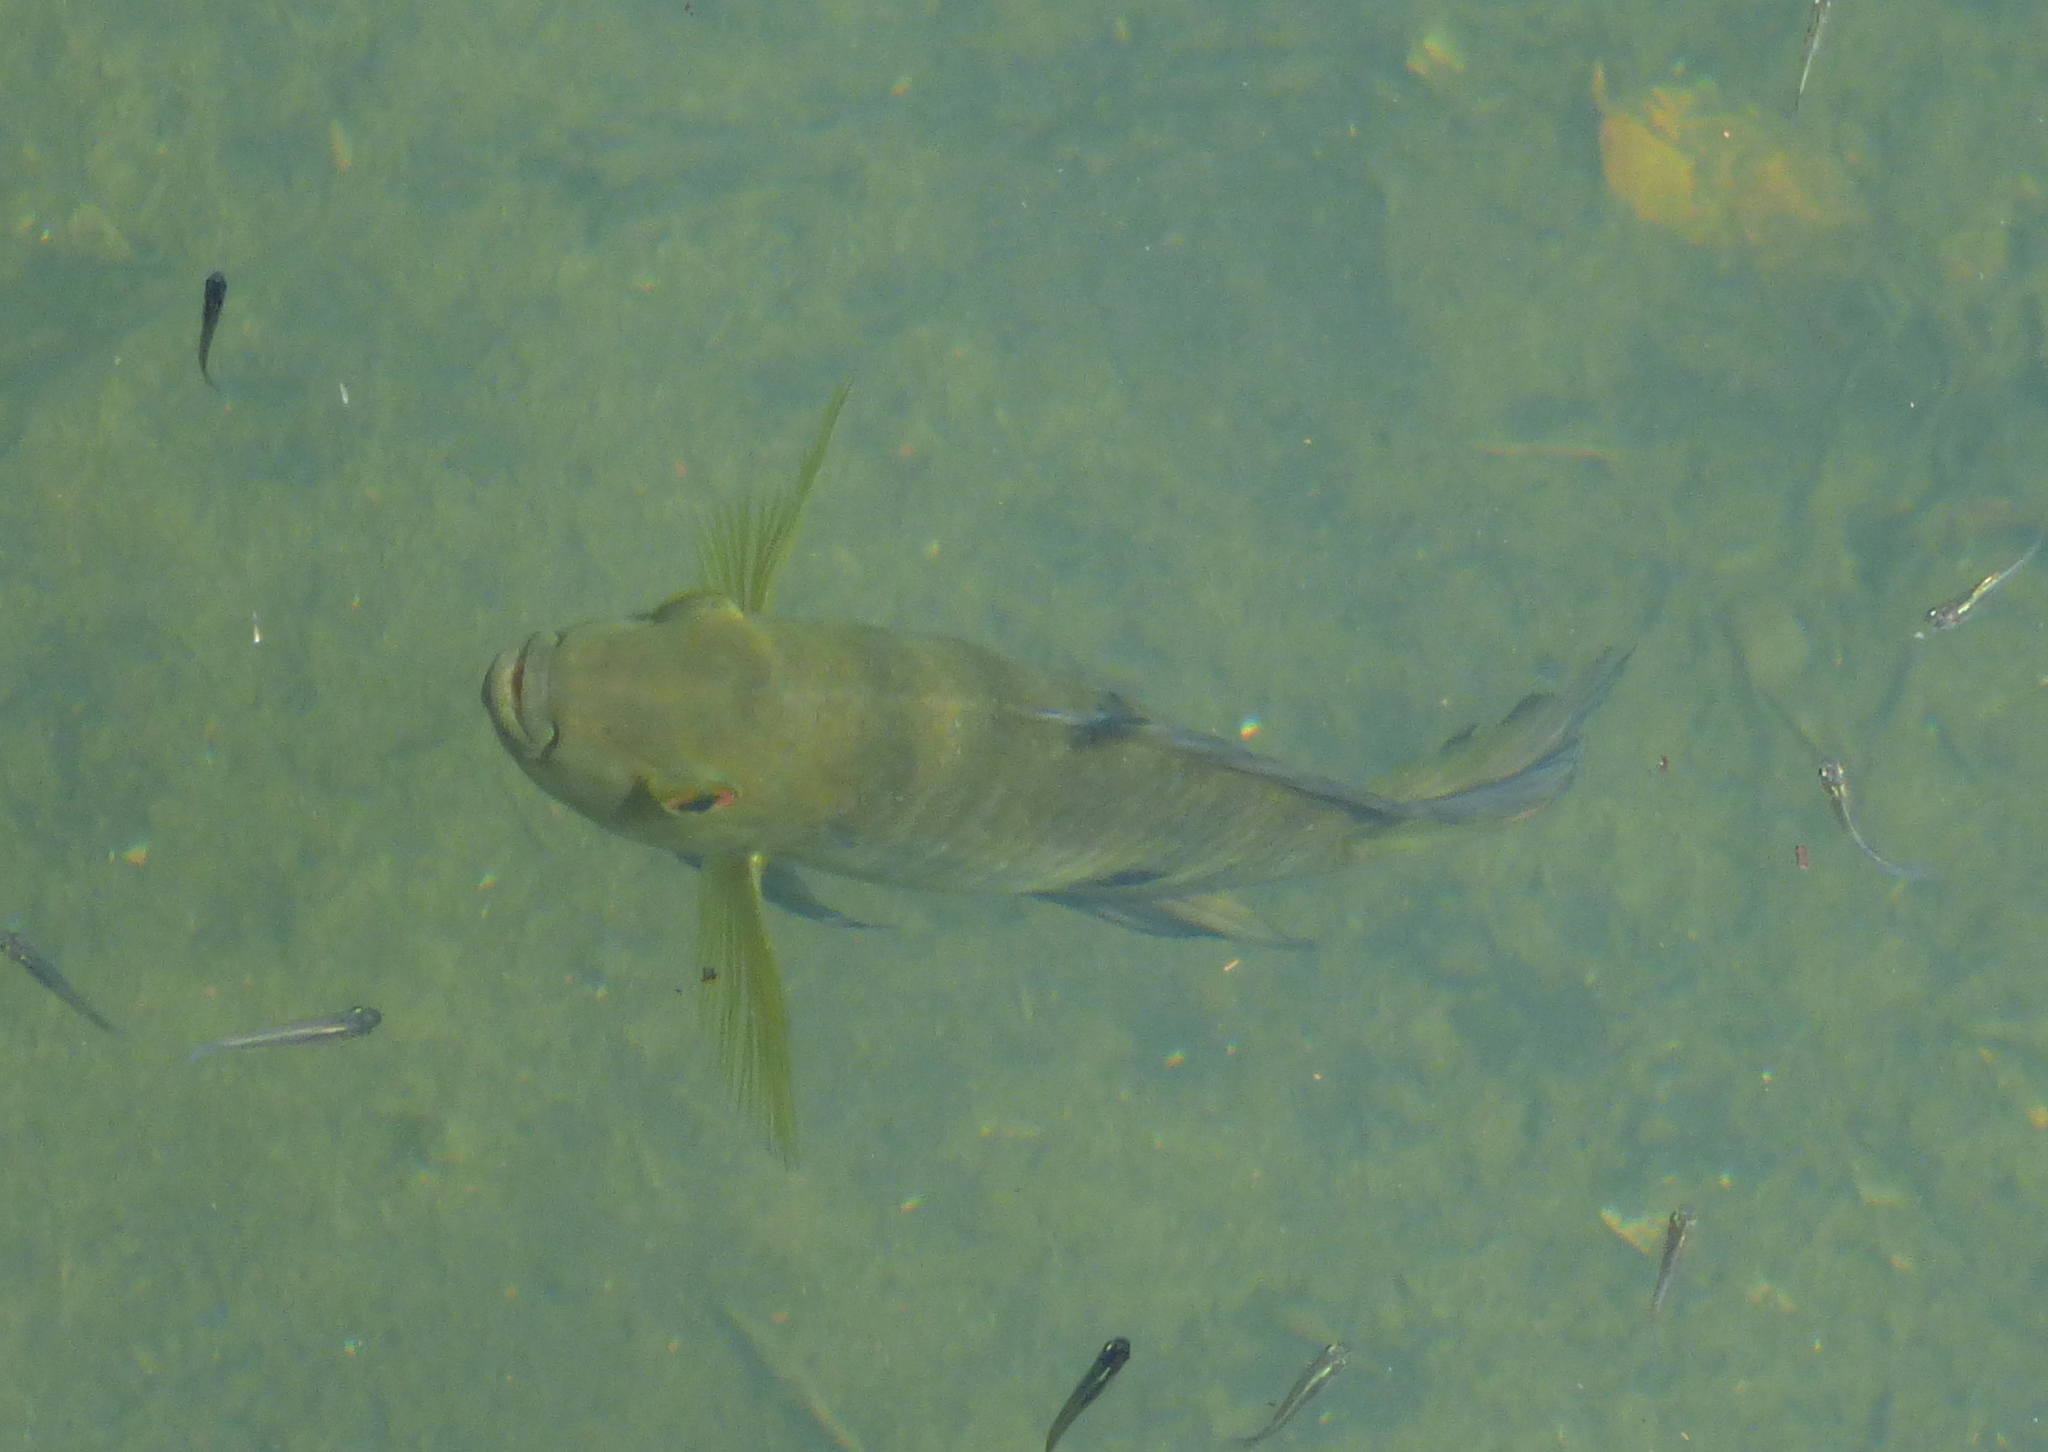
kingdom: Animalia
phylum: Chordata
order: Perciformes
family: Cichlidae
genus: Australoheros
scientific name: Australoheros facetus
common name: Chameleon cichlid
